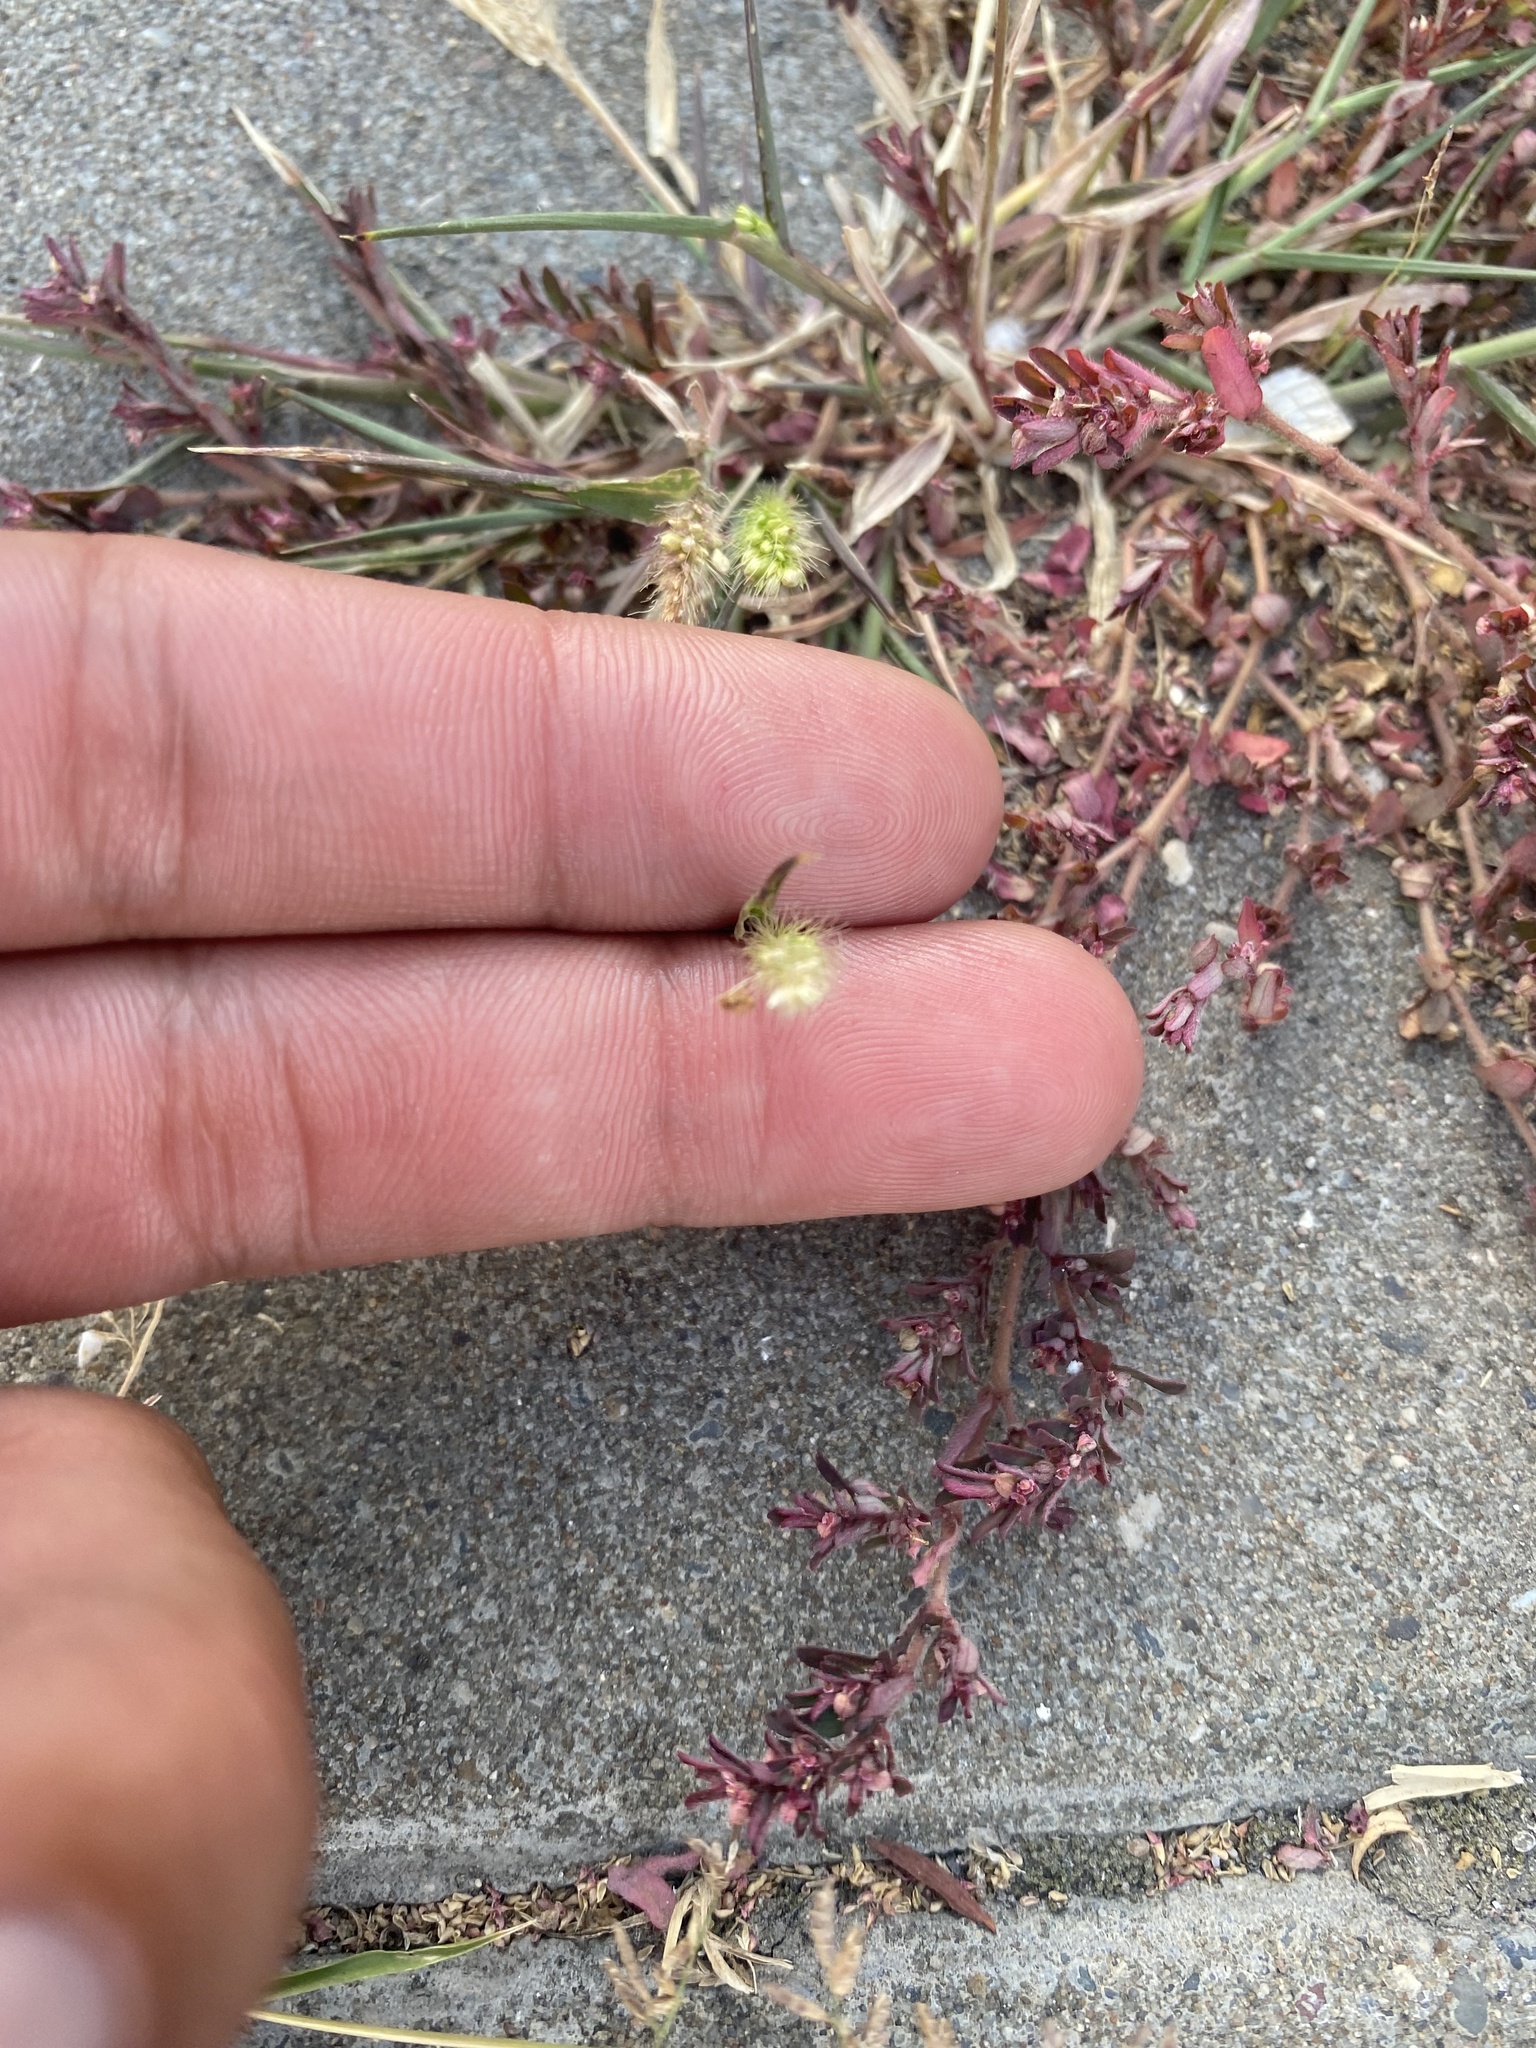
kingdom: Plantae
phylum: Tracheophyta
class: Liliopsida
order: Poales
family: Poaceae
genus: Setaria
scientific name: Setaria viridis
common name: Green bristlegrass
